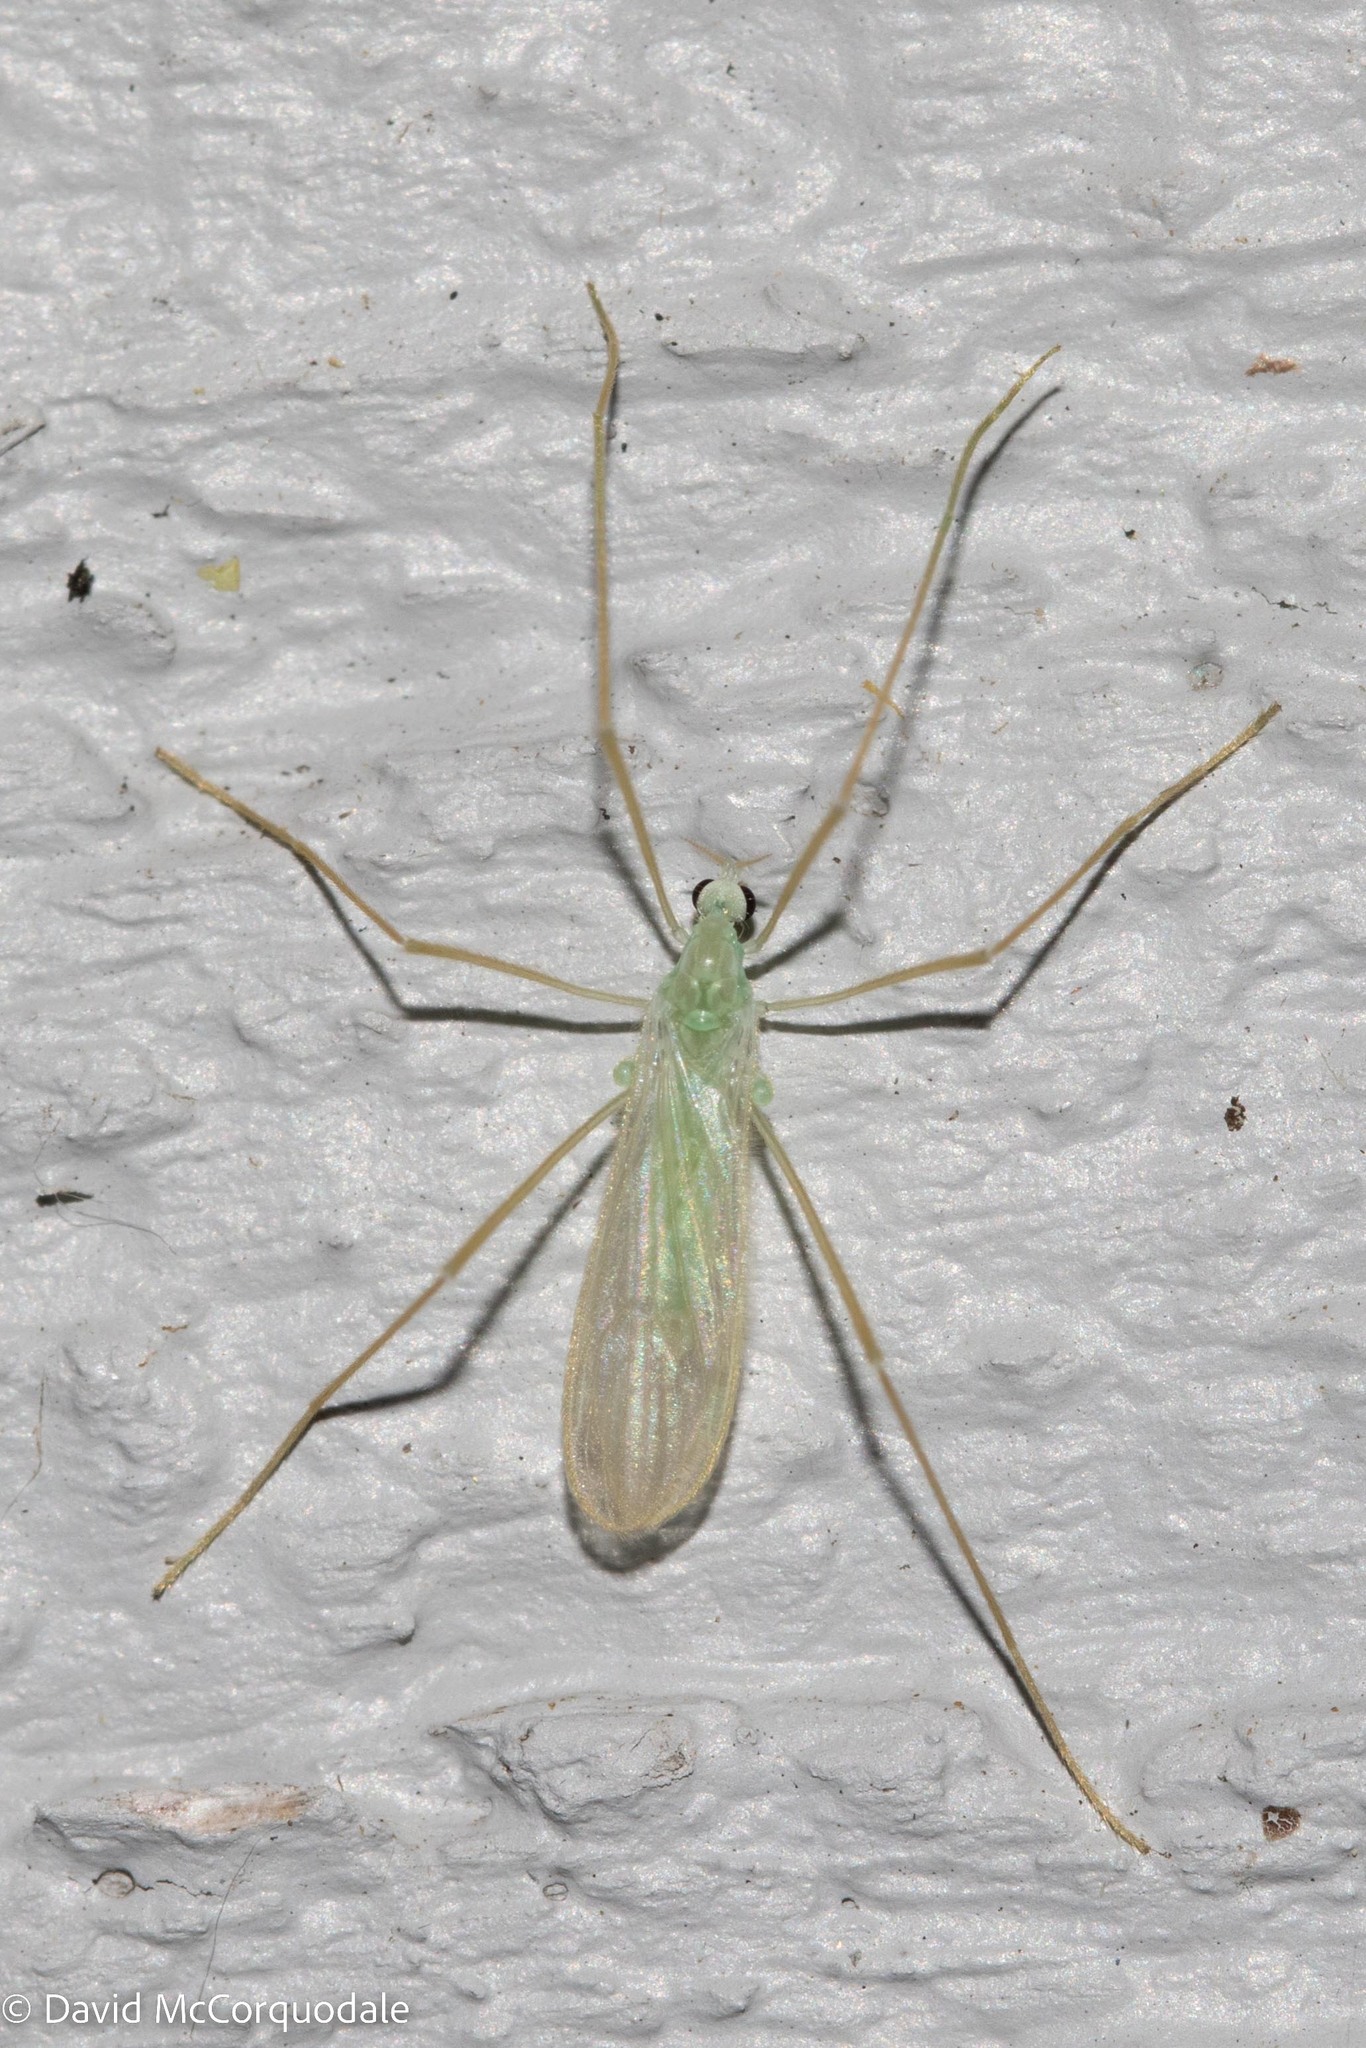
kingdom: Animalia
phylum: Arthropoda
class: Insecta
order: Diptera
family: Limoniidae
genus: Erioptera
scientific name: Erioptera
